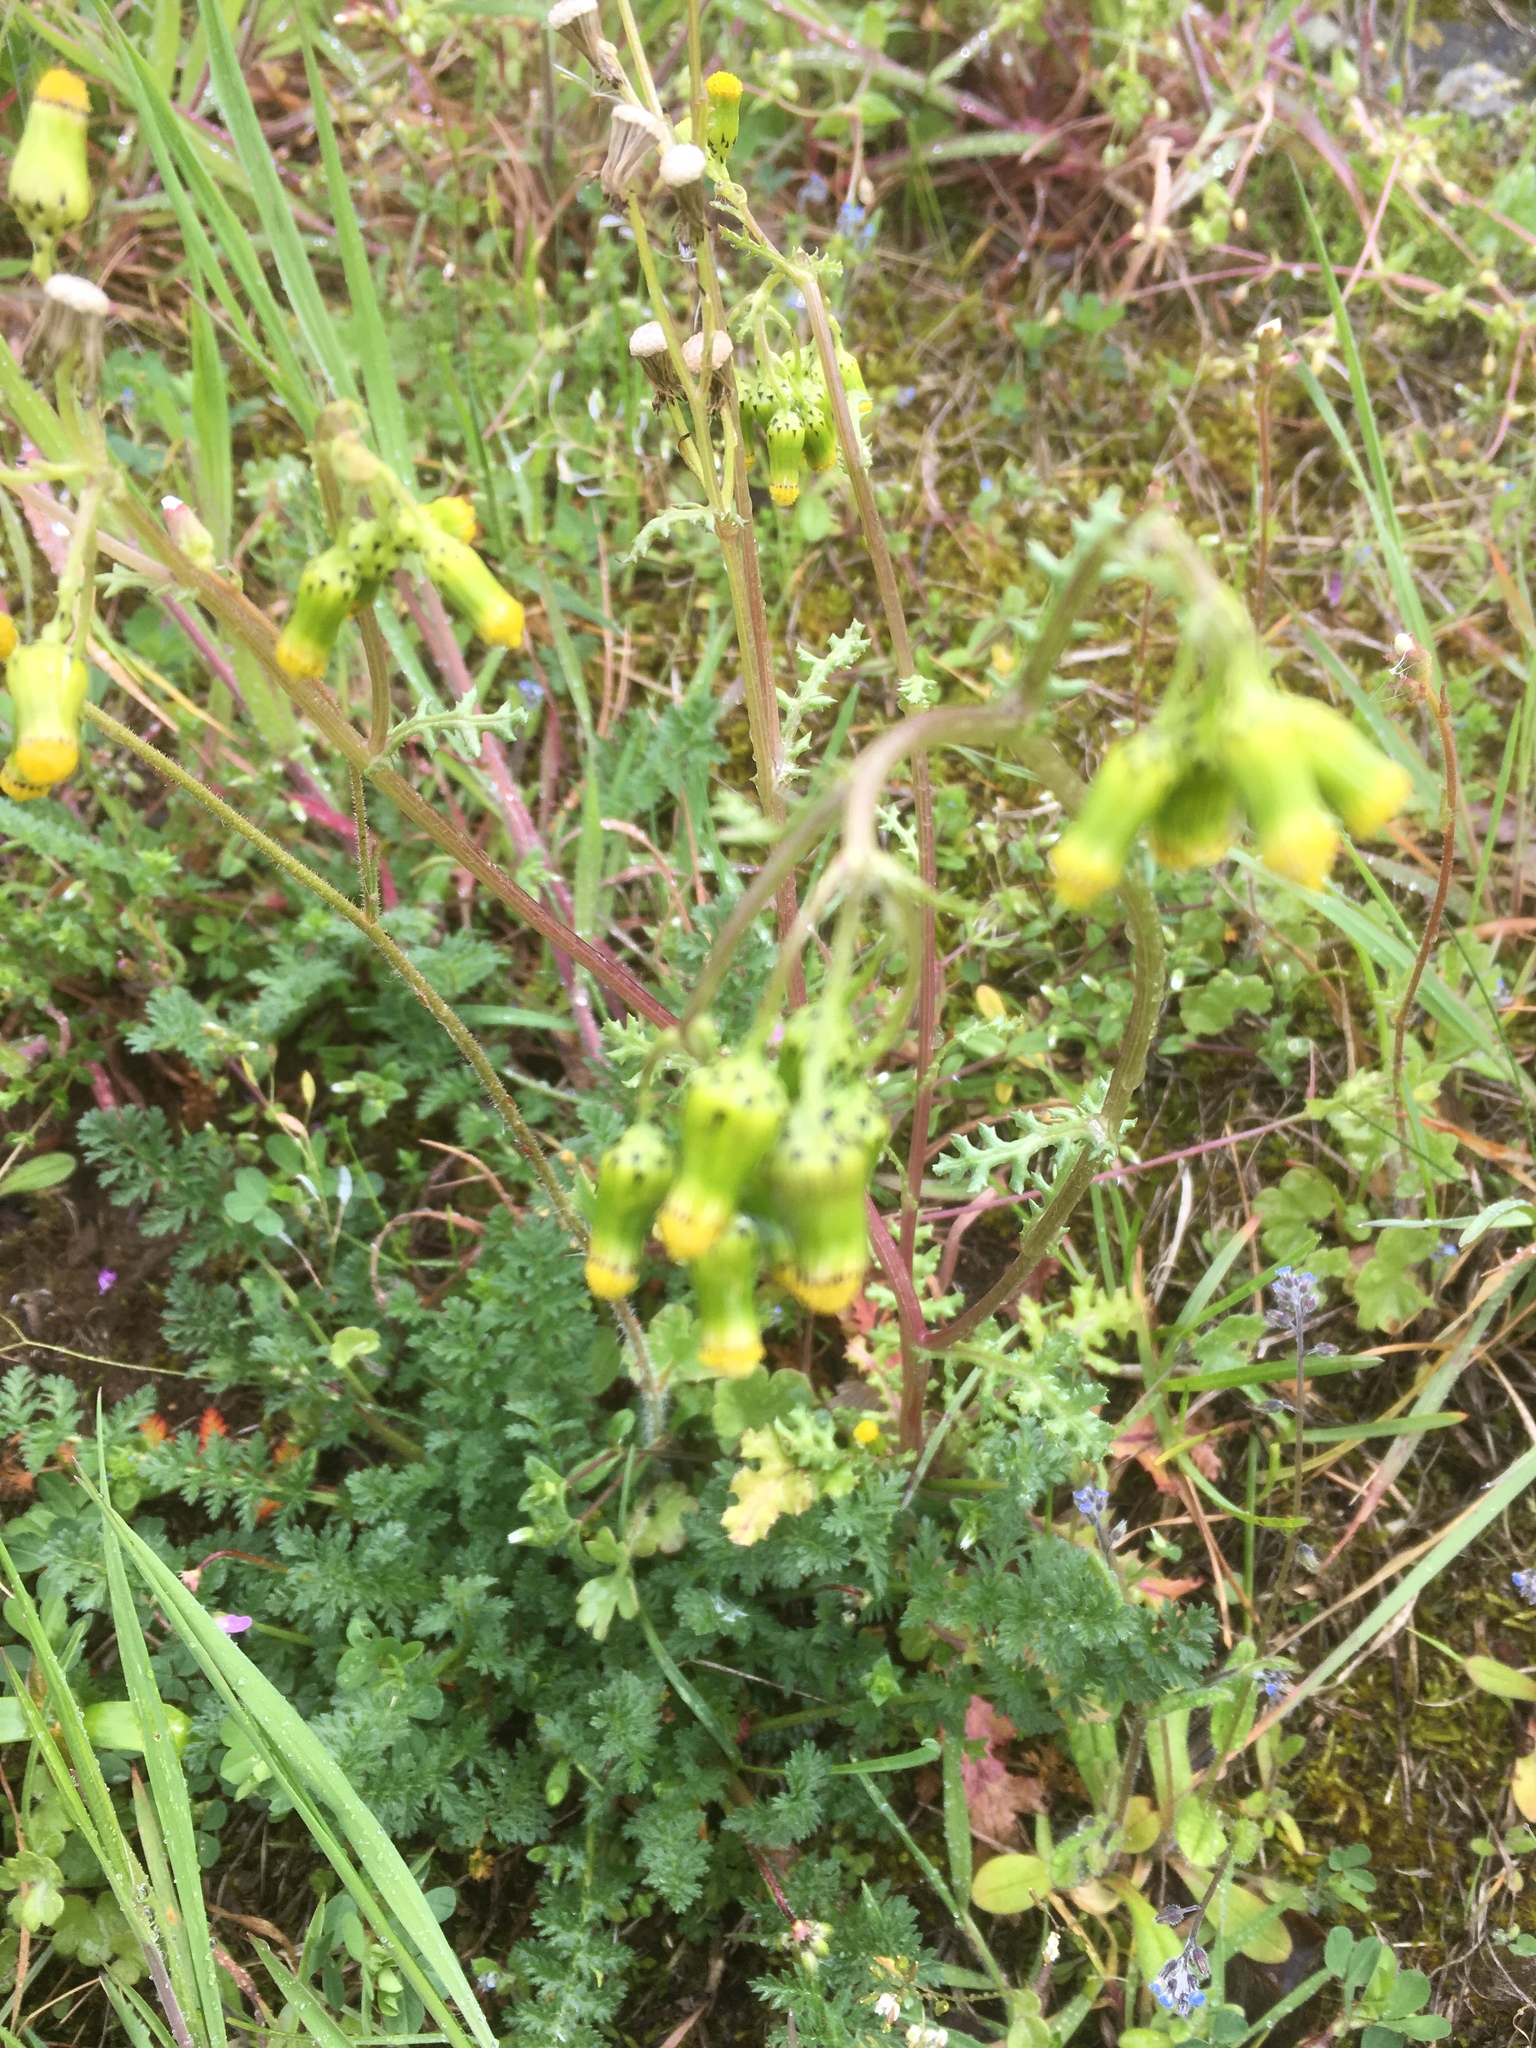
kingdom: Plantae
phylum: Tracheophyta
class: Magnoliopsida
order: Asterales
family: Asteraceae
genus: Senecio
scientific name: Senecio vulgaris
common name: Old-man-in-the-spring
